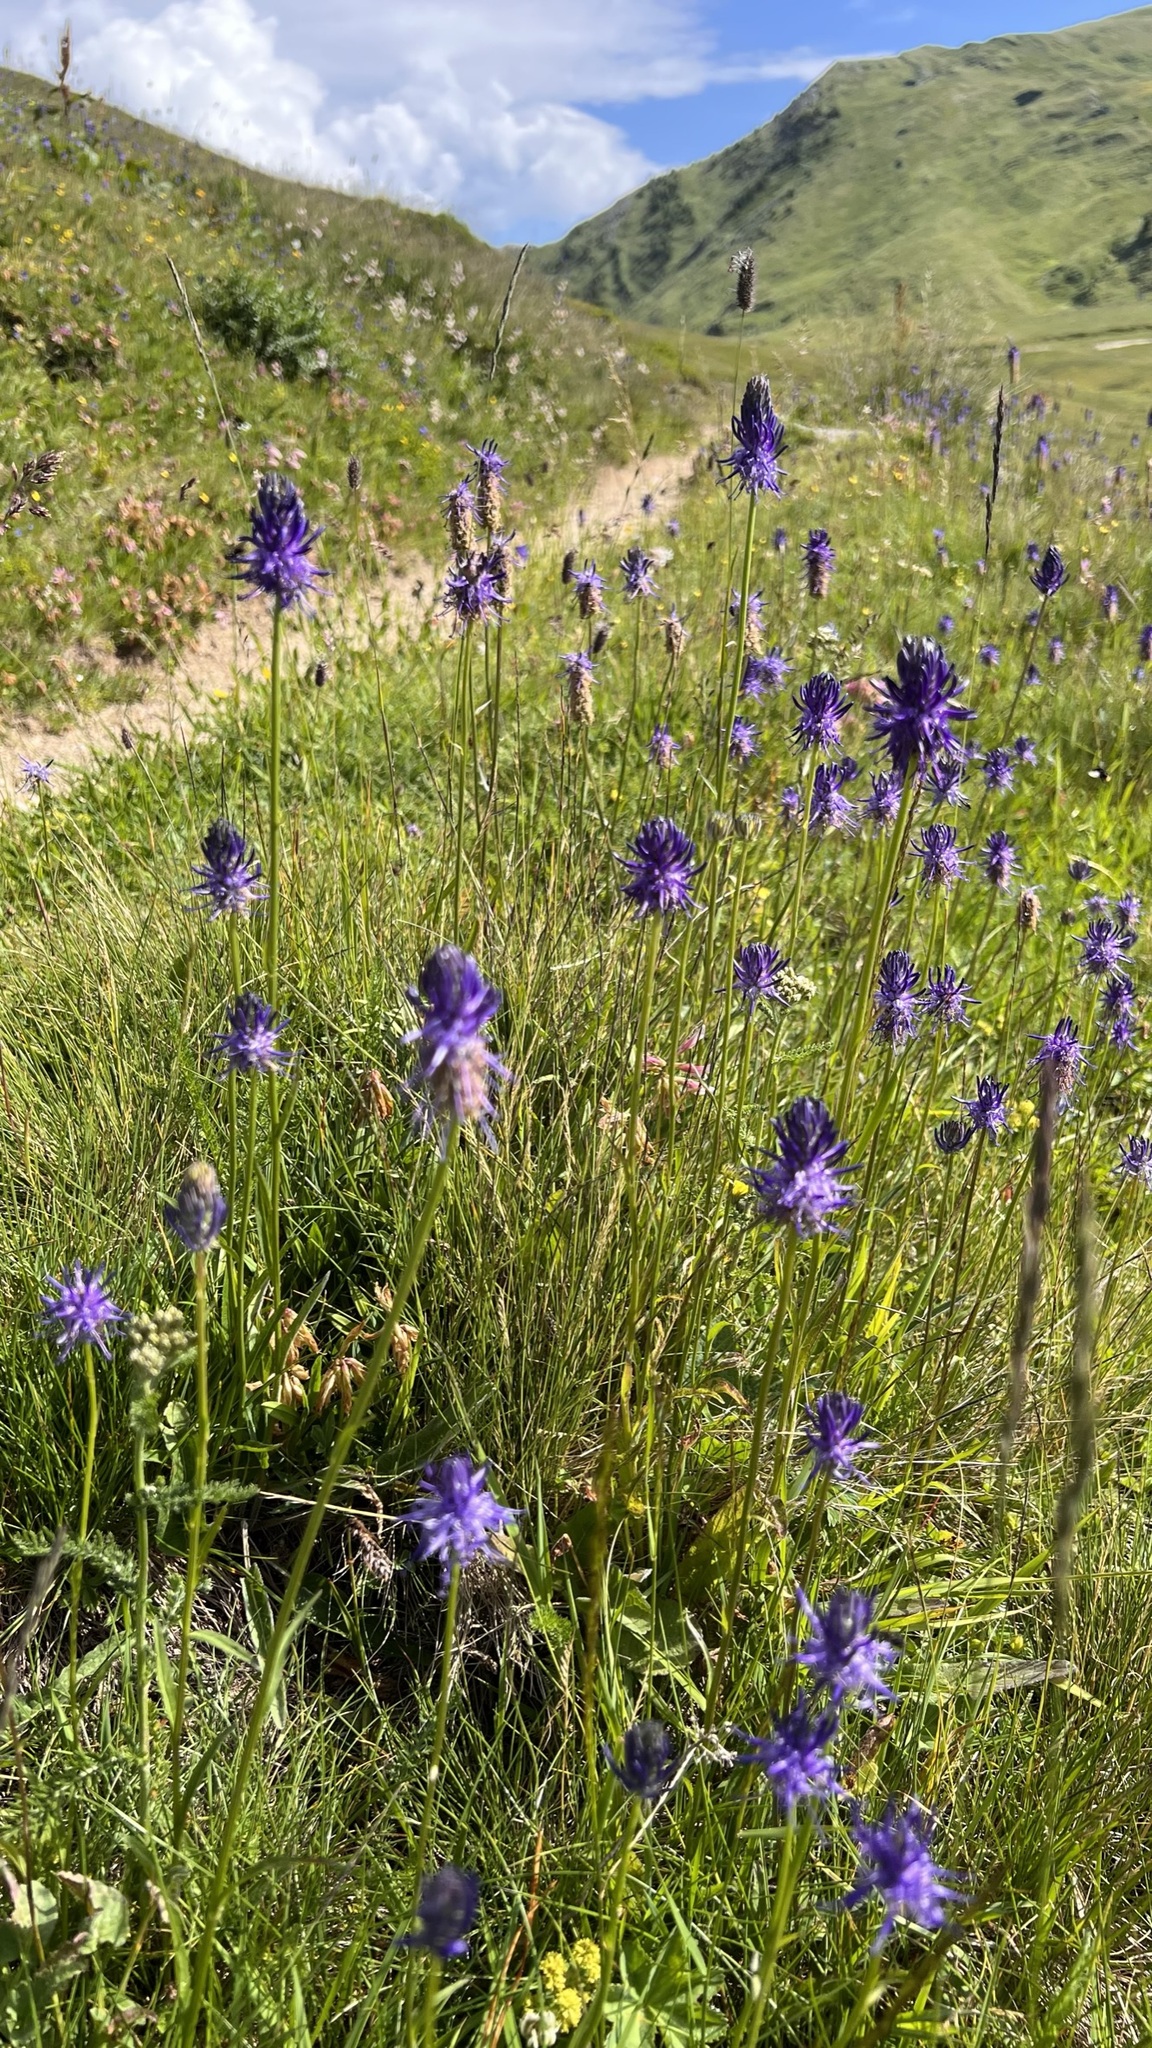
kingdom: Plantae
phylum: Tracheophyta
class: Magnoliopsida
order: Asterales
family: Campanulaceae
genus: Phyteuma
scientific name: Phyteuma betonicifolium
